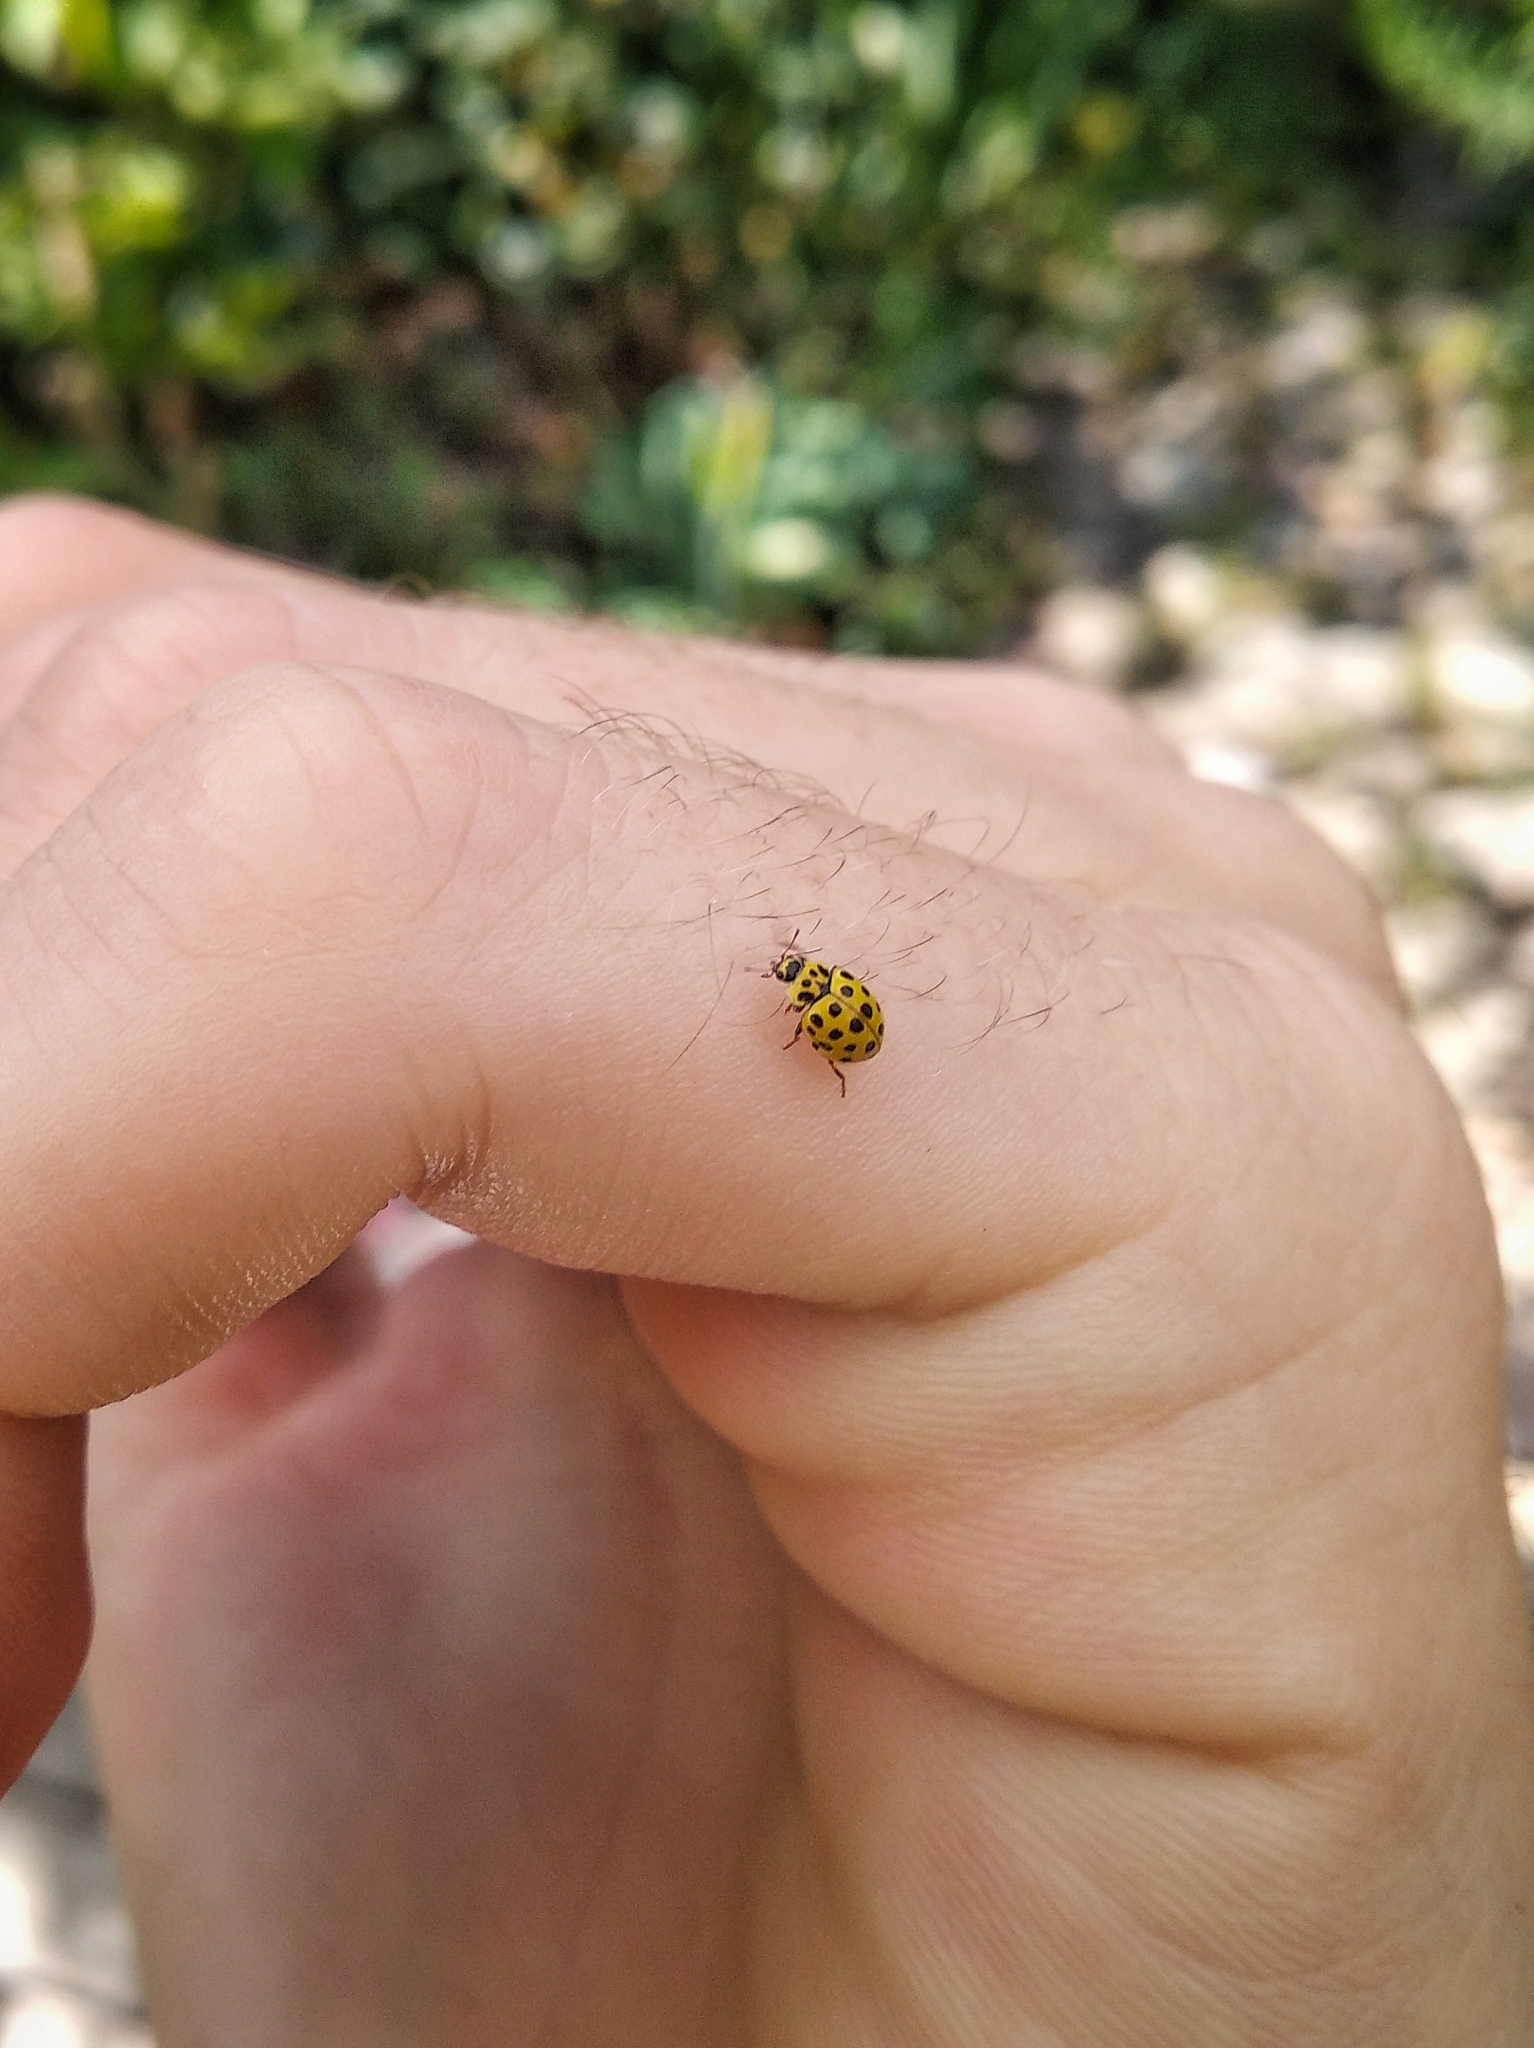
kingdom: Animalia
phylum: Arthropoda
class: Insecta
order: Coleoptera
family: Coccinellidae
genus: Psyllobora
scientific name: Psyllobora vigintiduopunctata
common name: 22-spot ladybird
